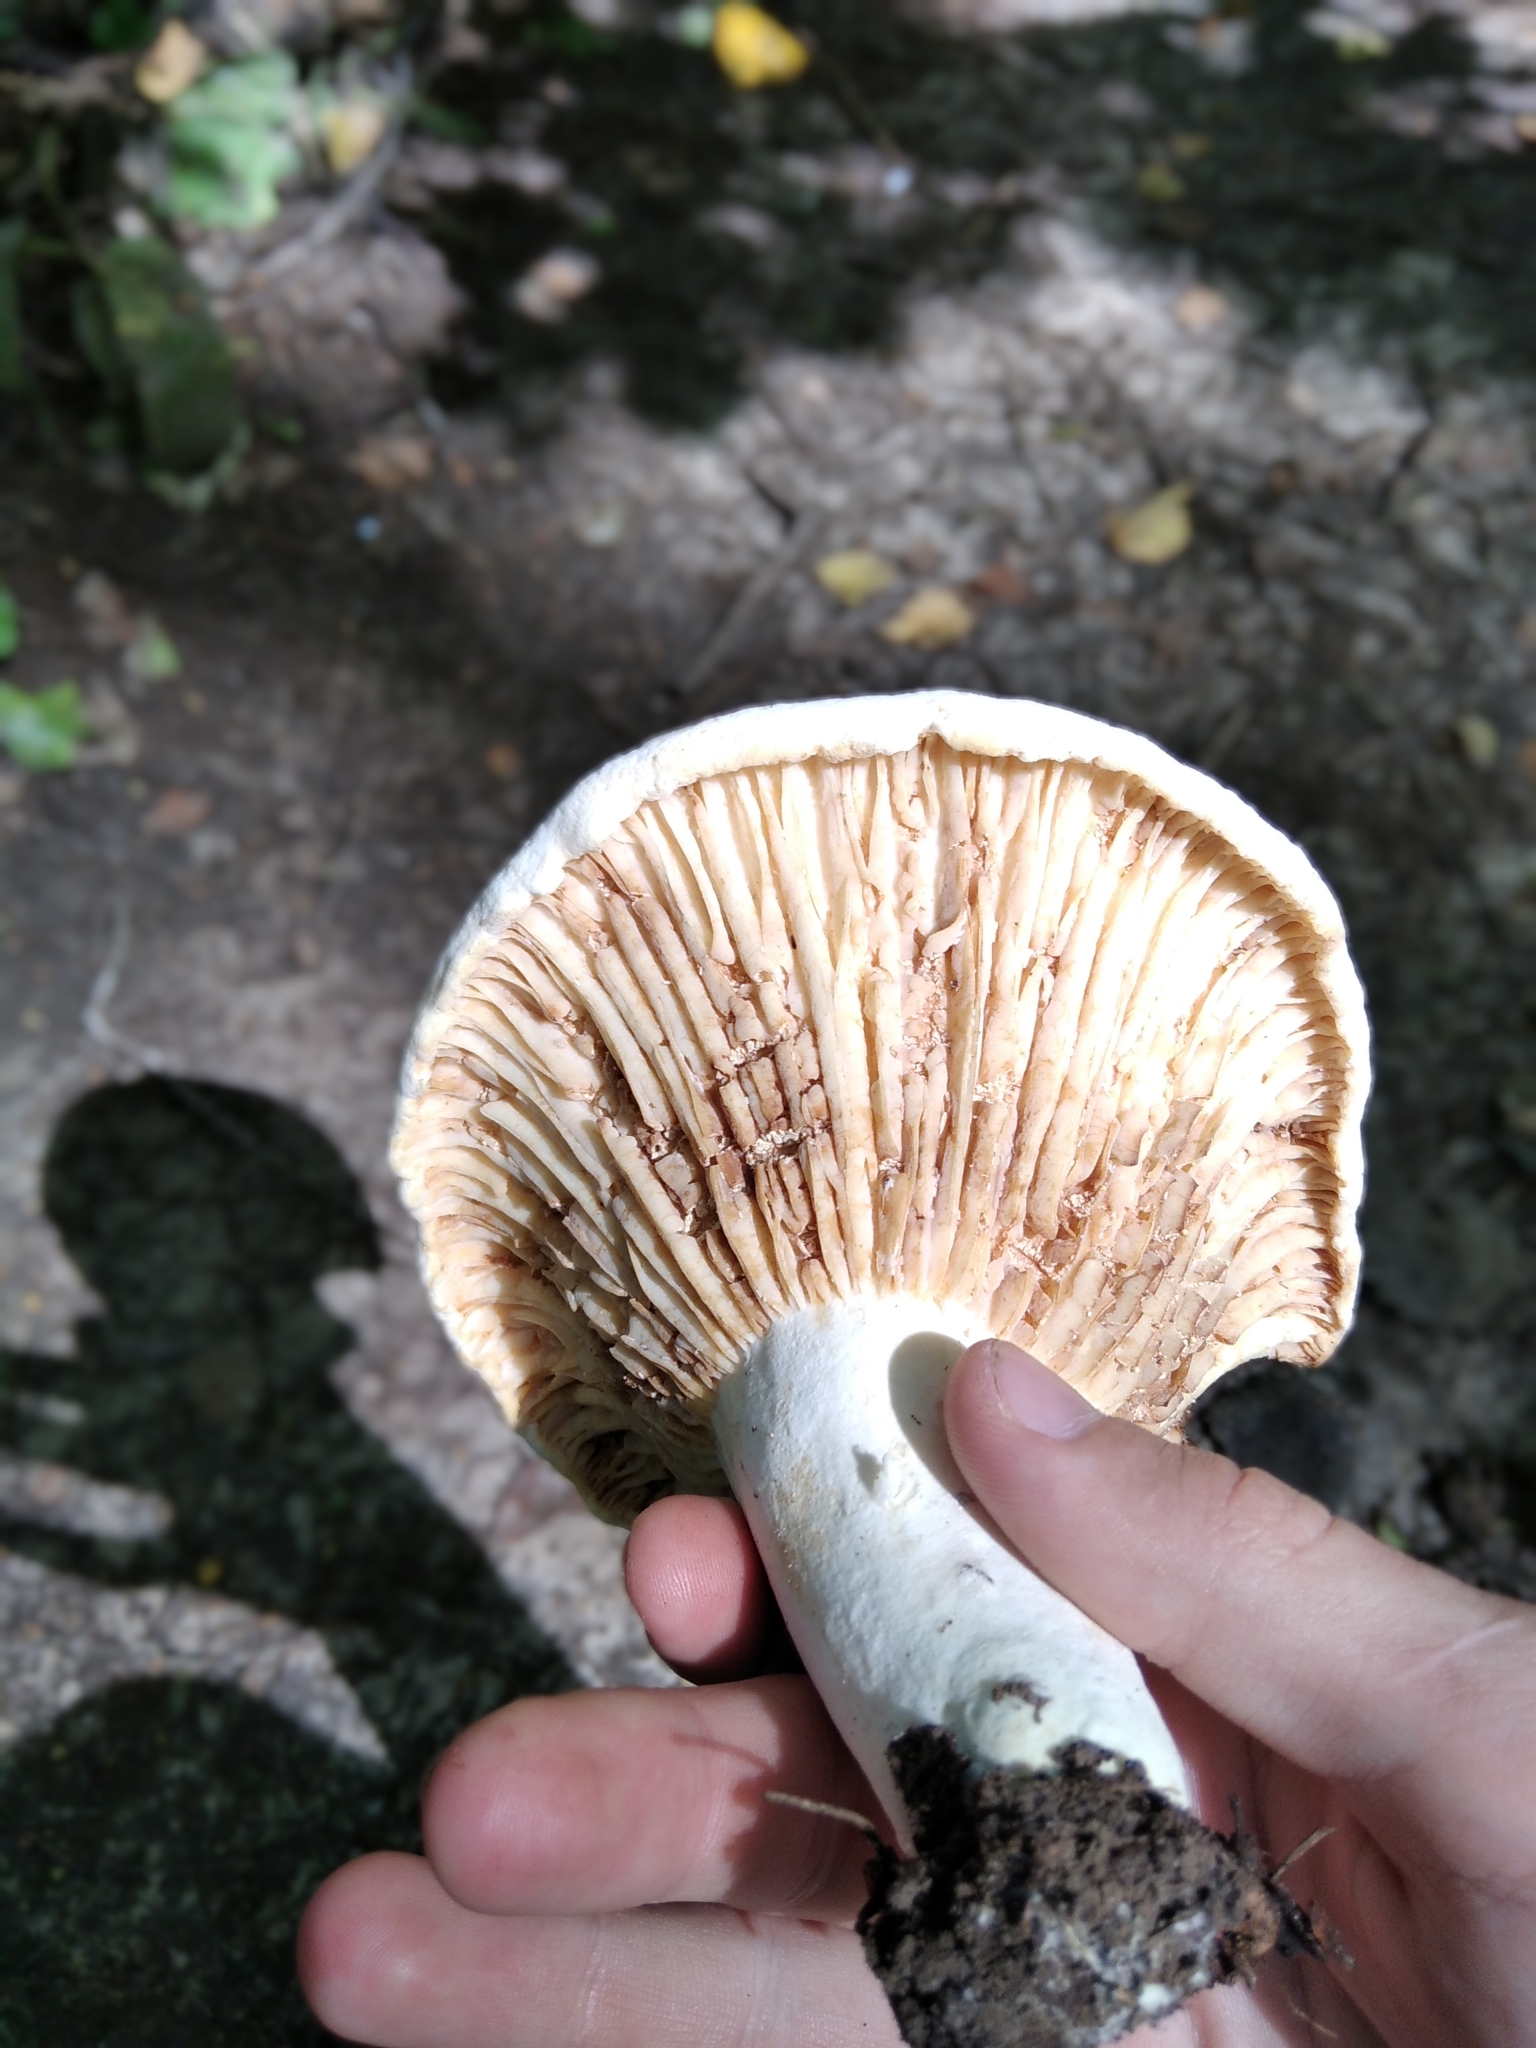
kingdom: Fungi
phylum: Basidiomycota
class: Agaricomycetes
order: Russulales
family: Russulaceae
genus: Lactifluus
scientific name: Lactifluus vellereus
